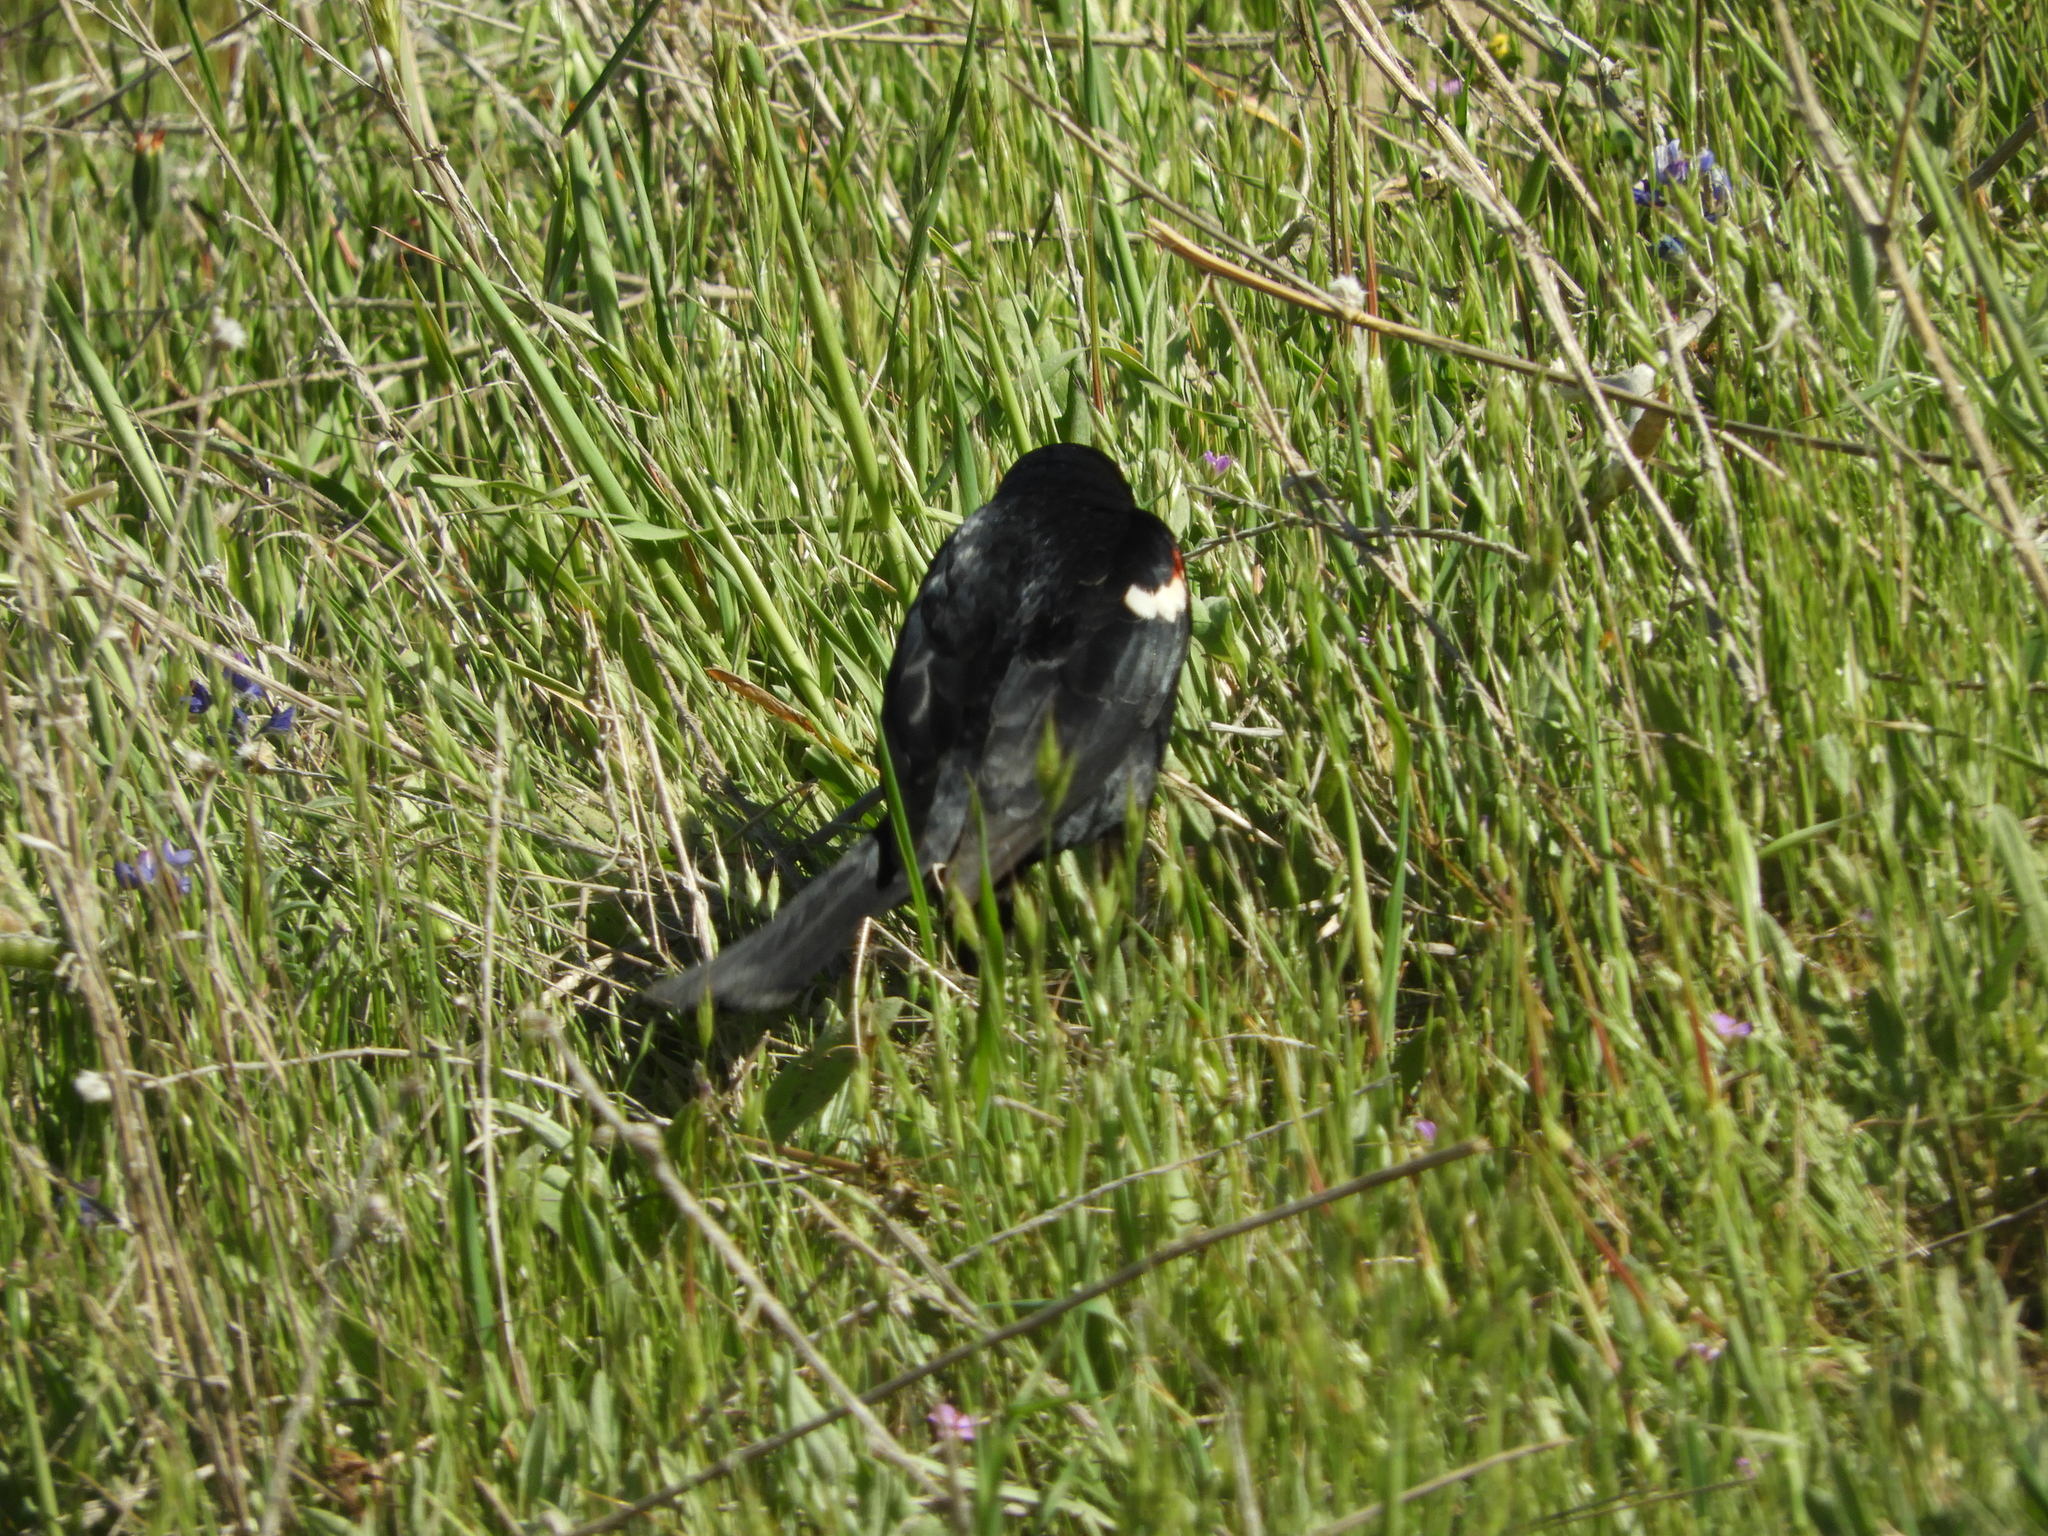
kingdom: Animalia
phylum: Chordata
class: Aves
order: Passeriformes
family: Icteridae
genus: Agelaius
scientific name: Agelaius tricolor
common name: Tricolored blackbird
